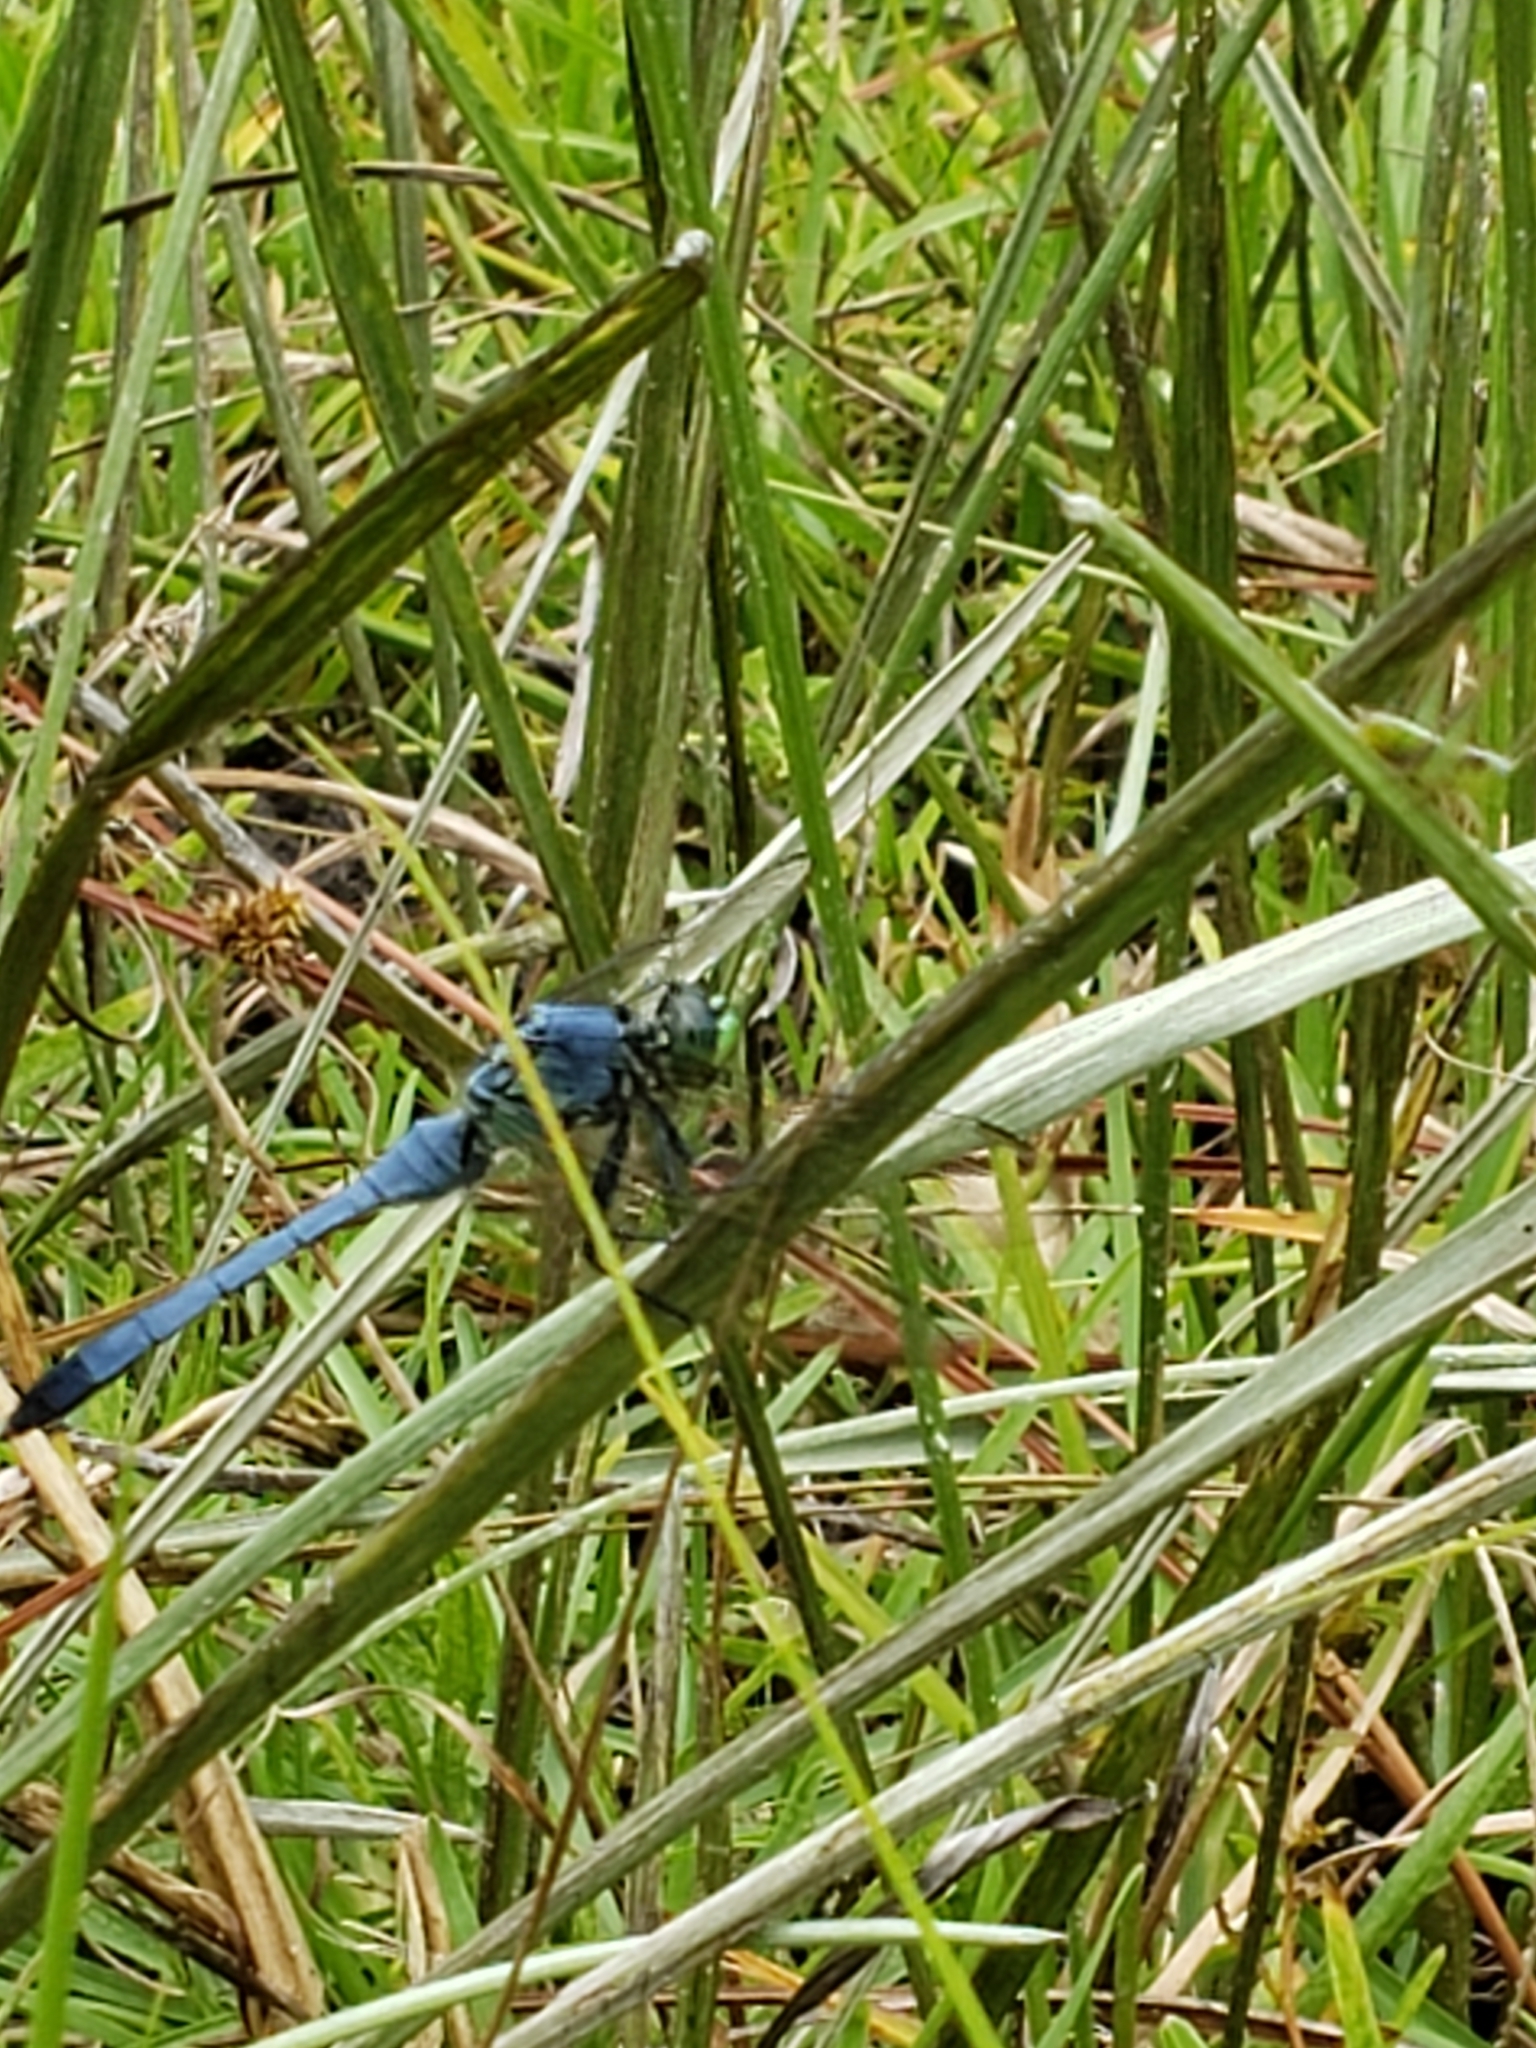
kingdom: Animalia
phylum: Arthropoda
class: Insecta
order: Odonata
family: Libellulidae
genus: Erythemis
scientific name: Erythemis simplicicollis
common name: Eastern pondhawk
